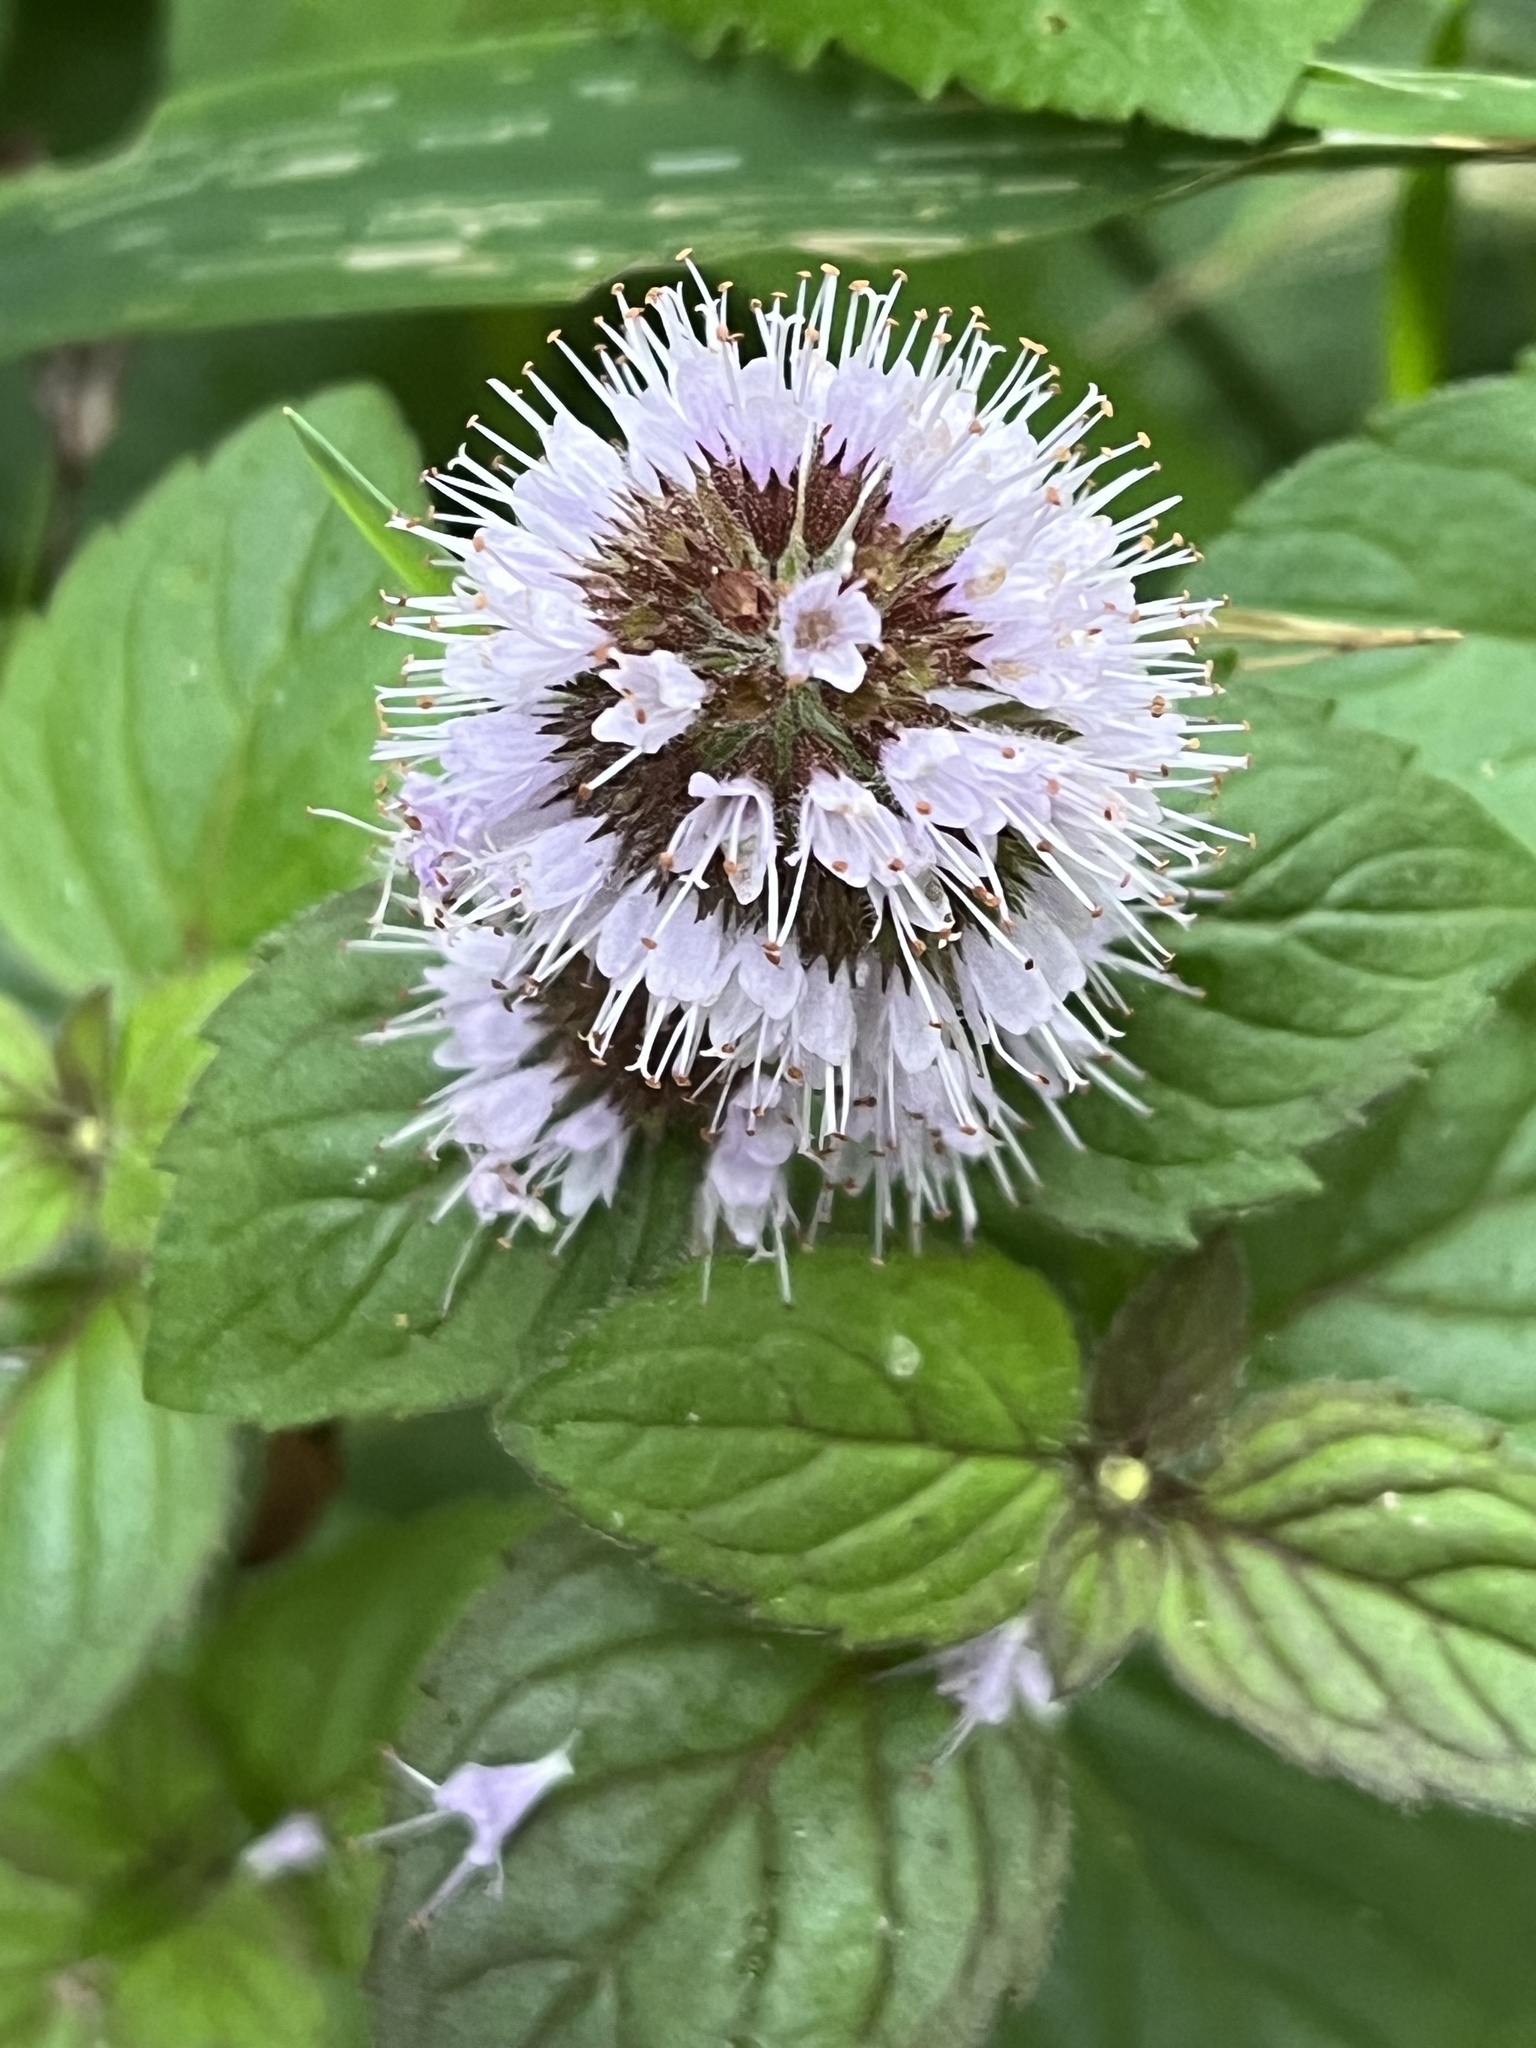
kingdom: Plantae
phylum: Tracheophyta
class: Magnoliopsida
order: Lamiales
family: Lamiaceae
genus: Mentha
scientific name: Mentha aquatica
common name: Water mint
